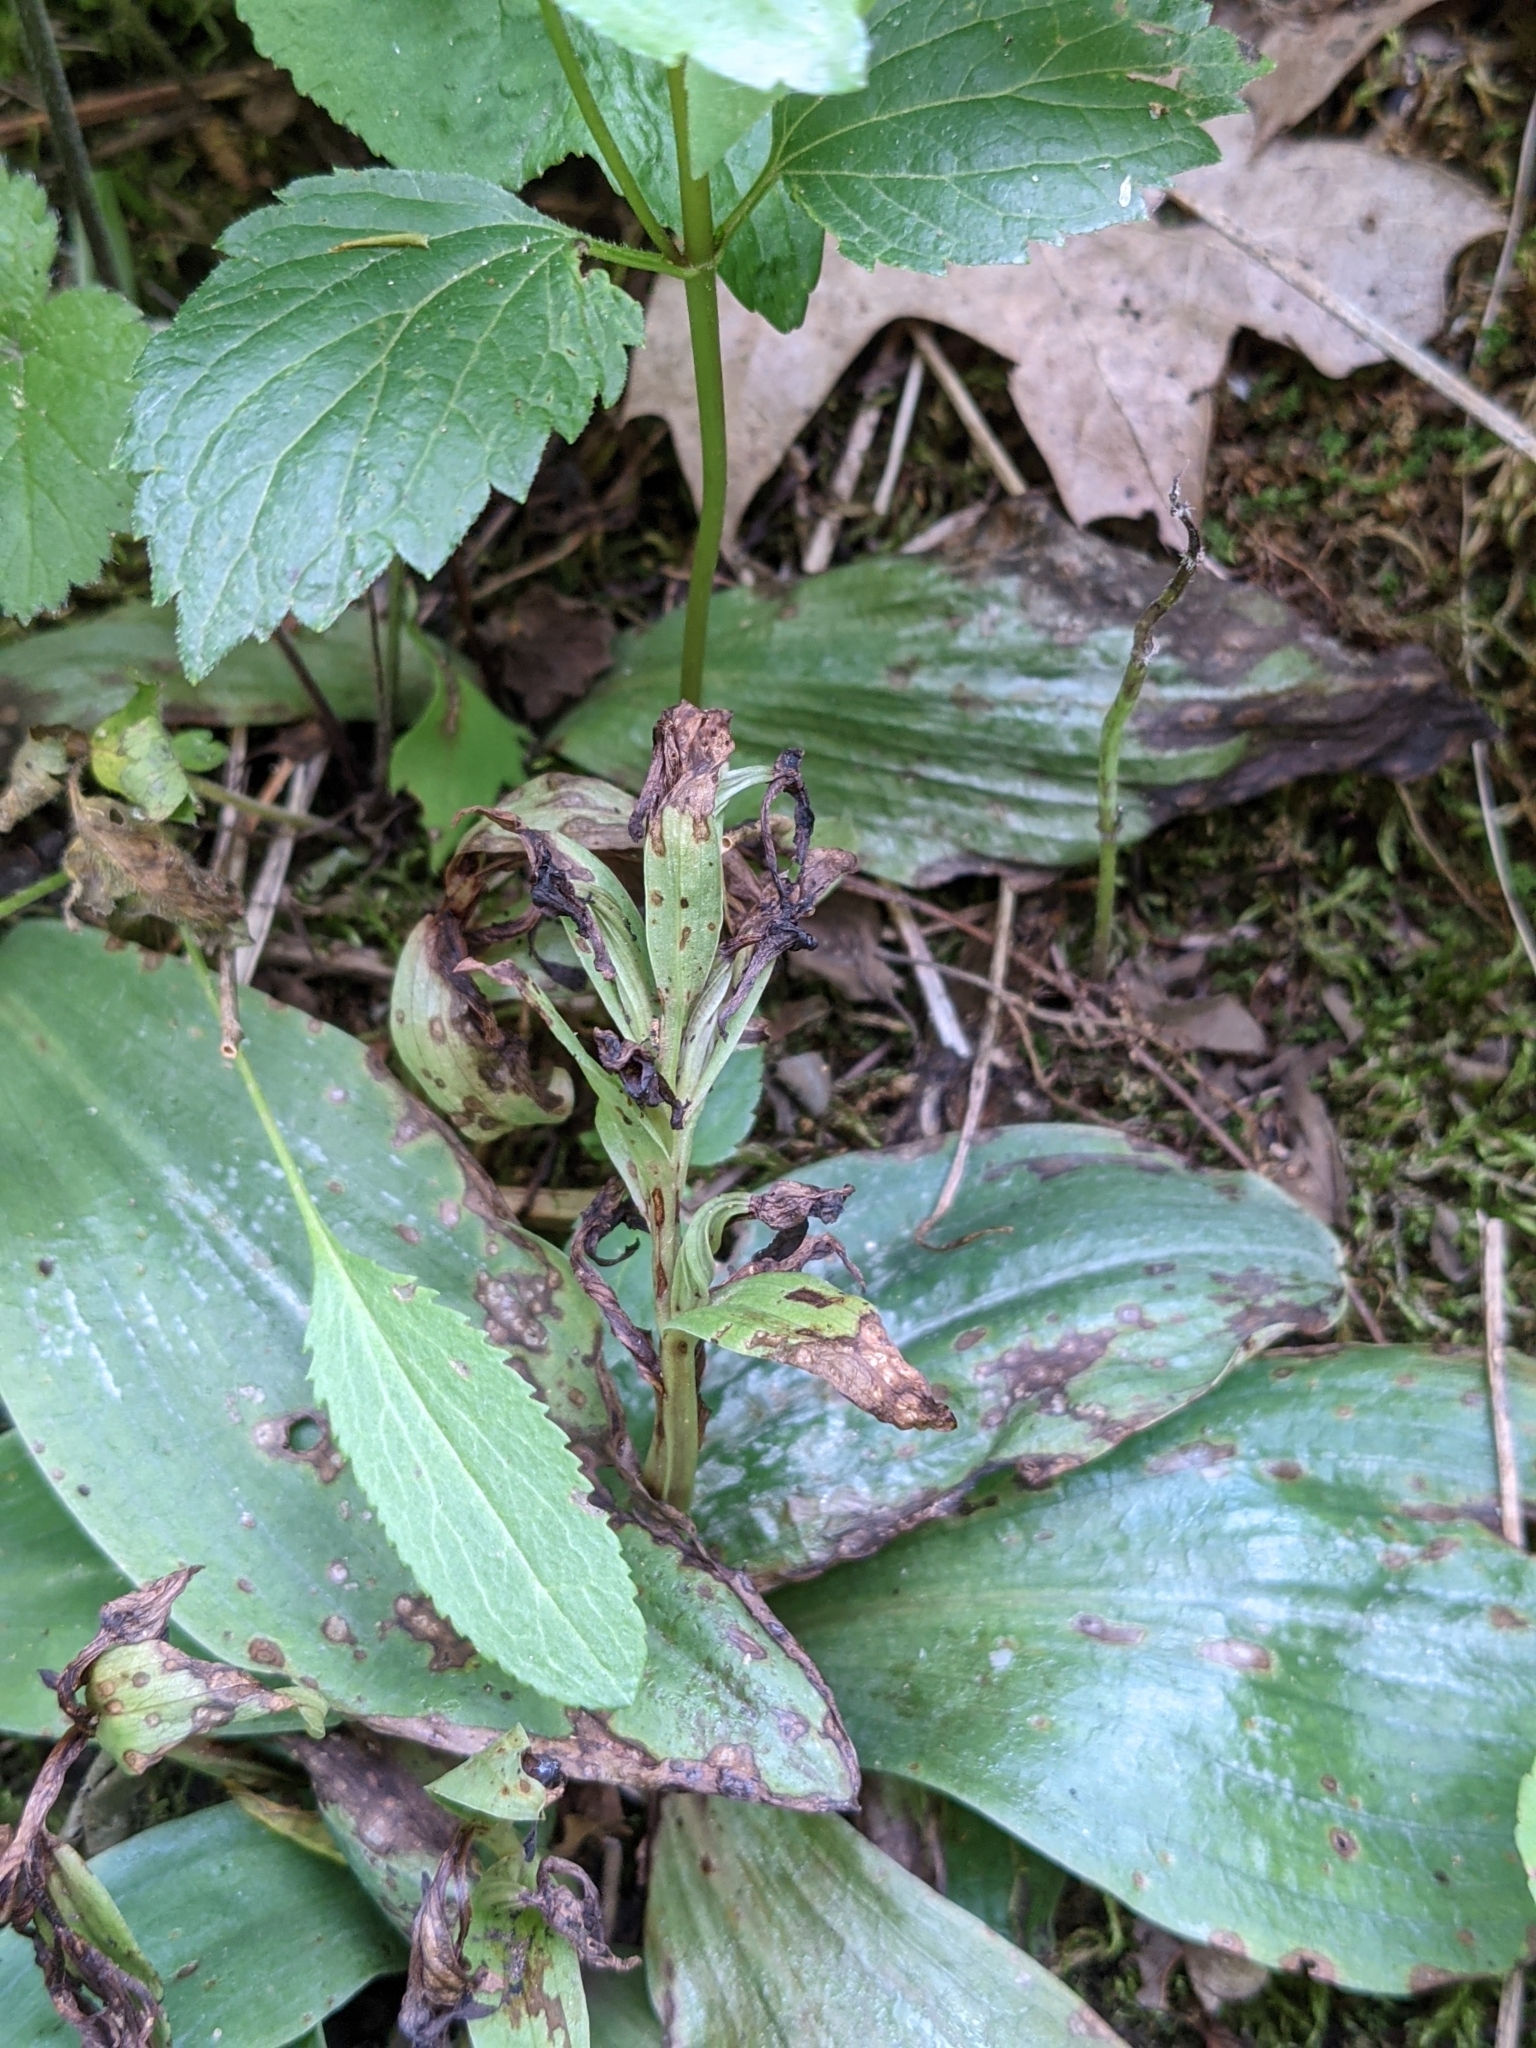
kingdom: Plantae
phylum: Tracheophyta
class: Liliopsida
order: Asparagales
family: Orchidaceae
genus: Galearis
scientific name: Galearis spectabilis
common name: Purple-hooded orchis
